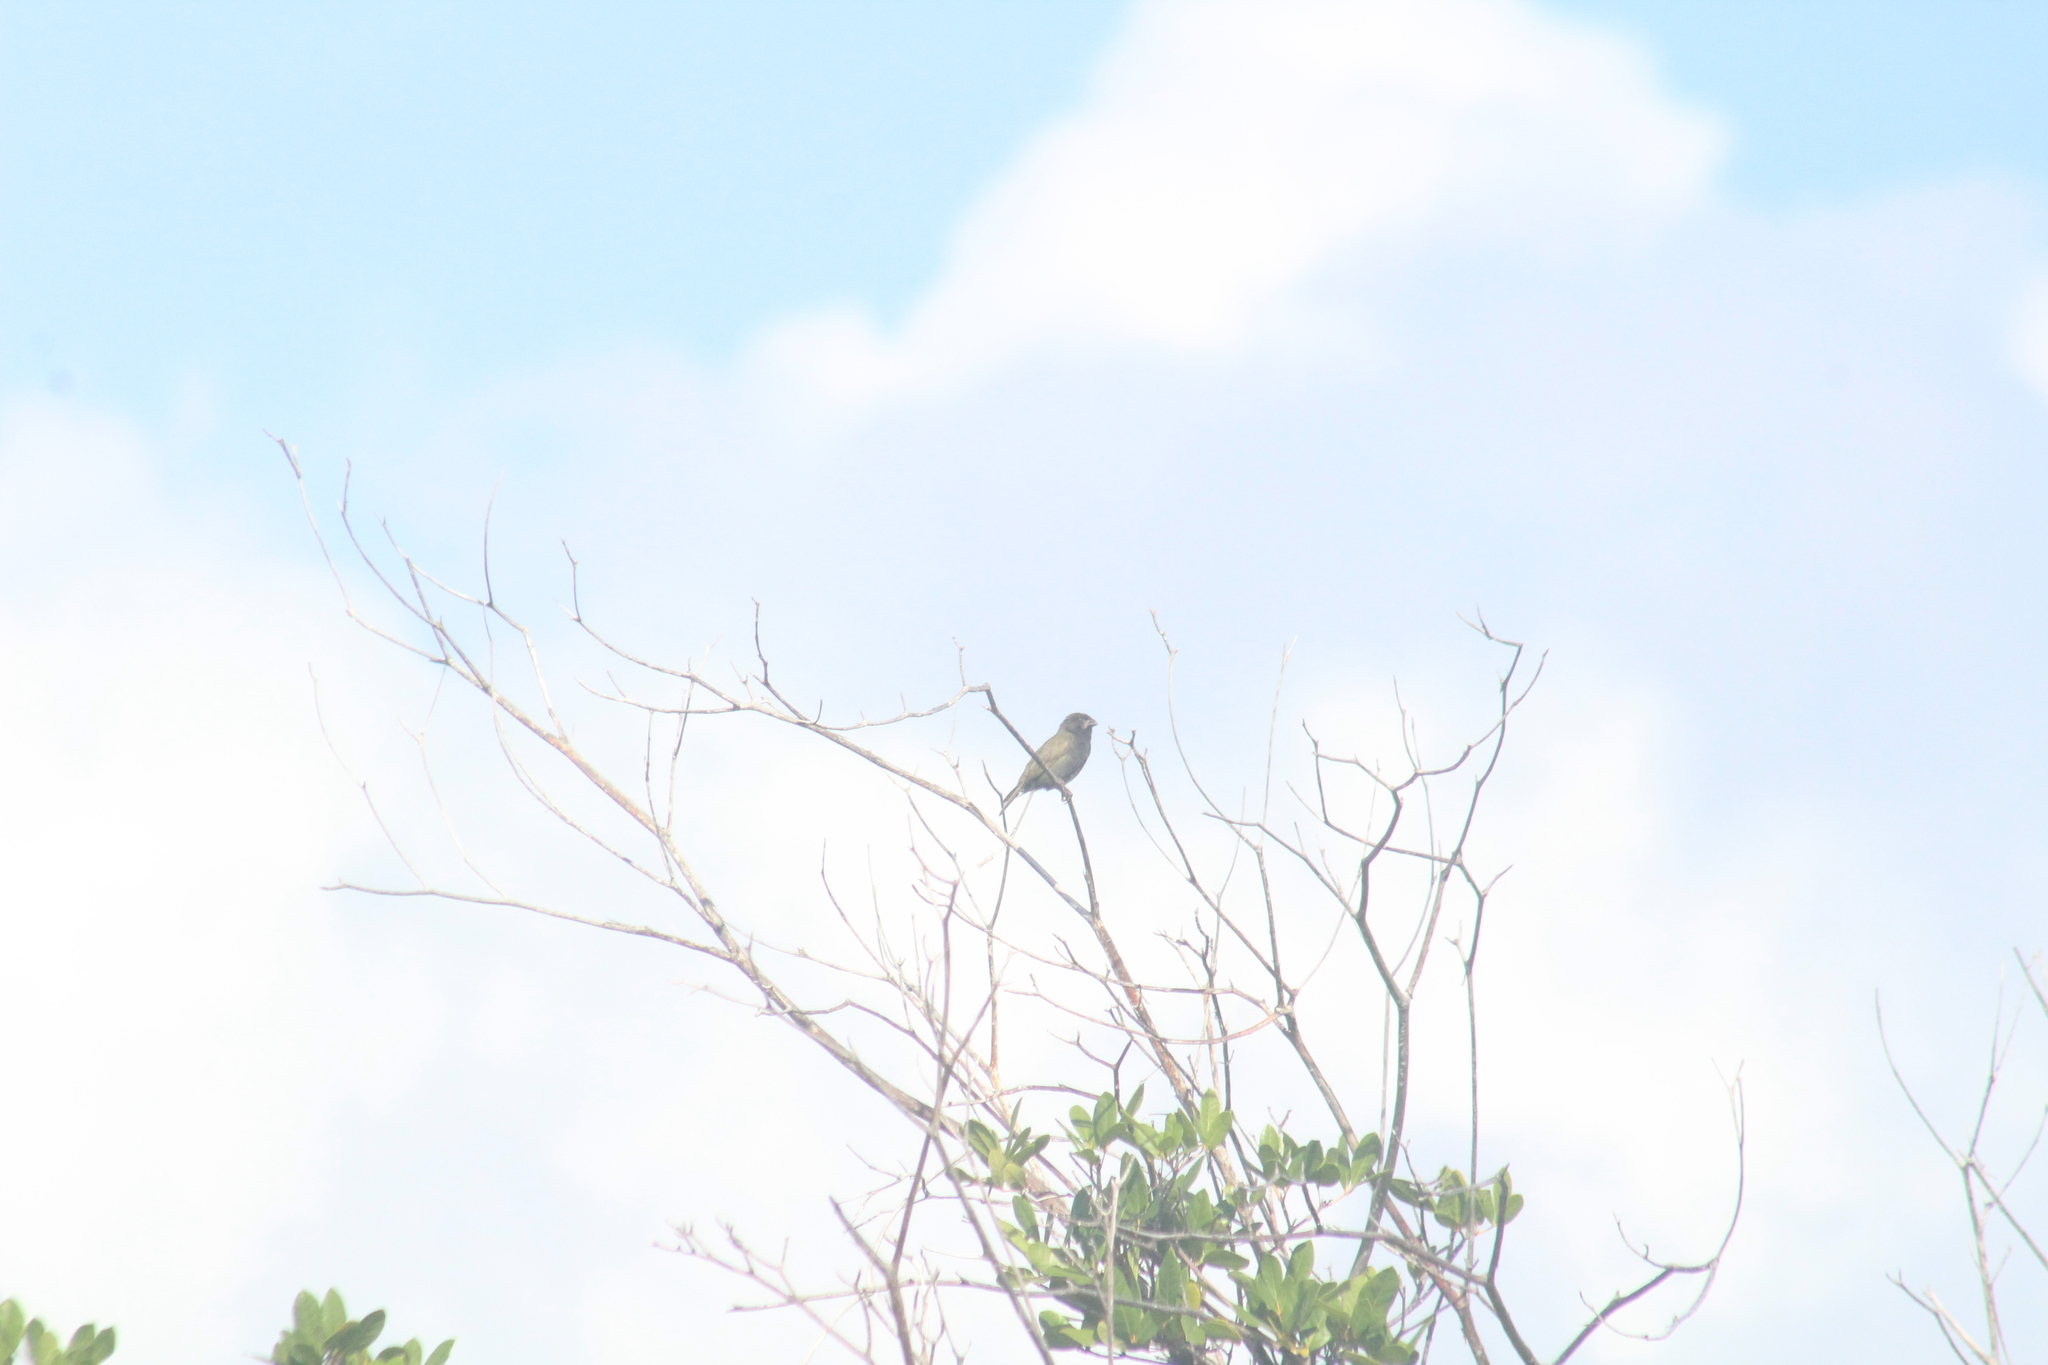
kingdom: Animalia
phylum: Chordata
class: Aves
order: Passeriformes
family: Thraupidae
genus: Melanospiza
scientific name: Melanospiza bicolor
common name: Black-faced grassquit
